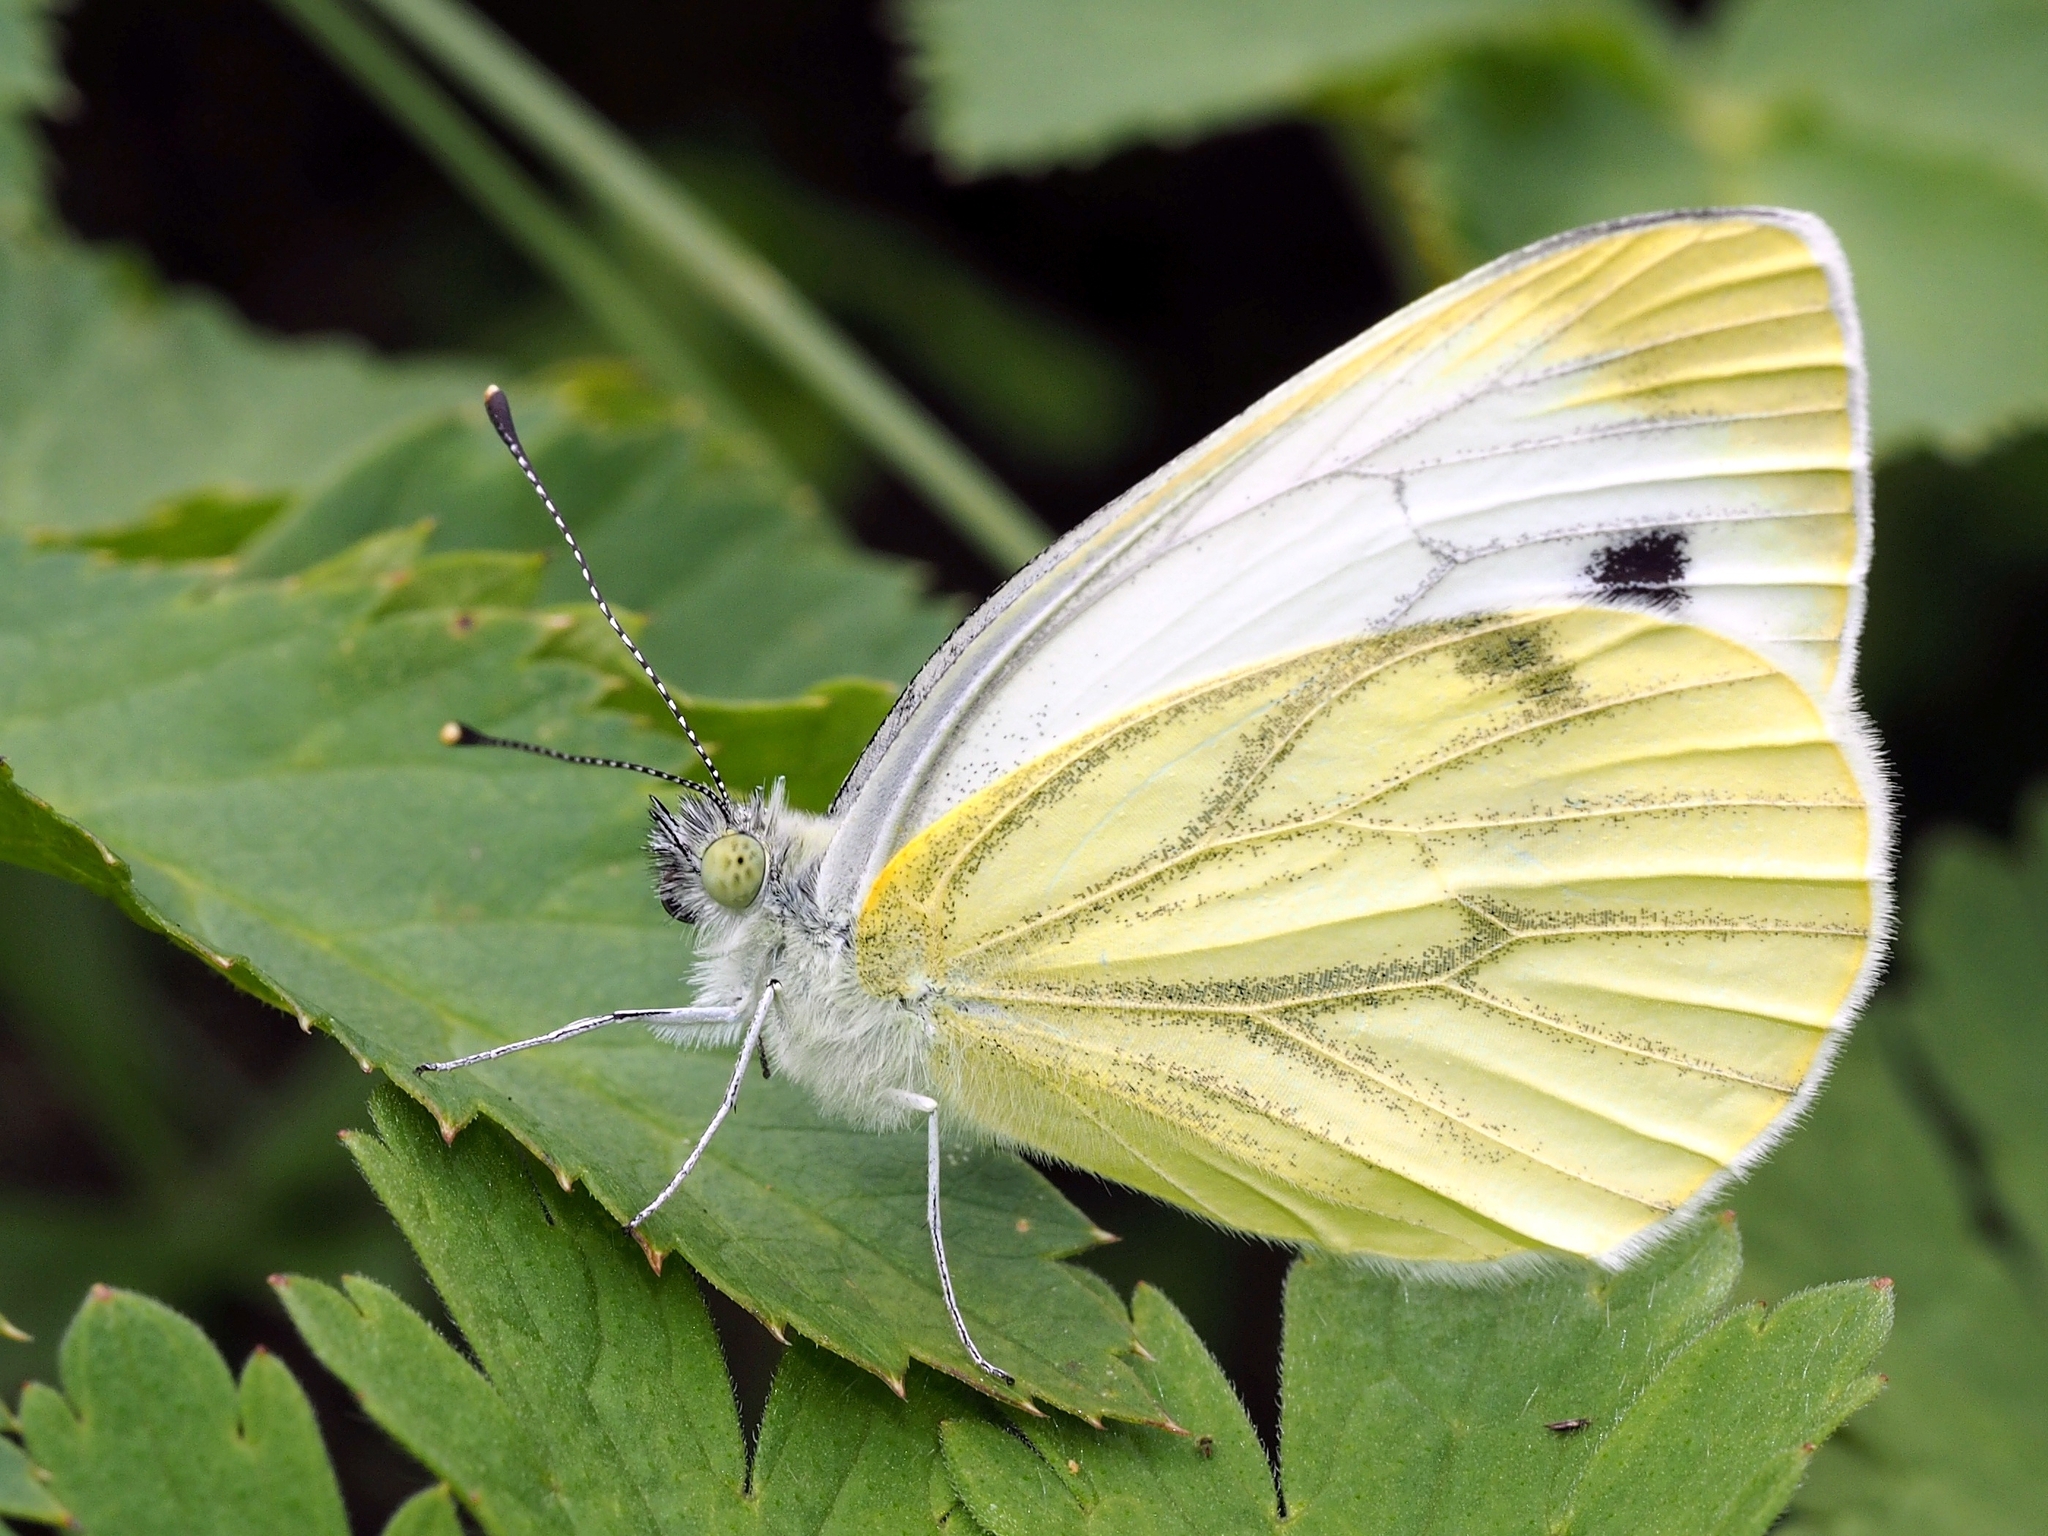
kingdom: Animalia
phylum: Arthropoda
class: Insecta
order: Lepidoptera
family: Pieridae
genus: Pieris
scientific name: Pieris napi
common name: Green-veined white
